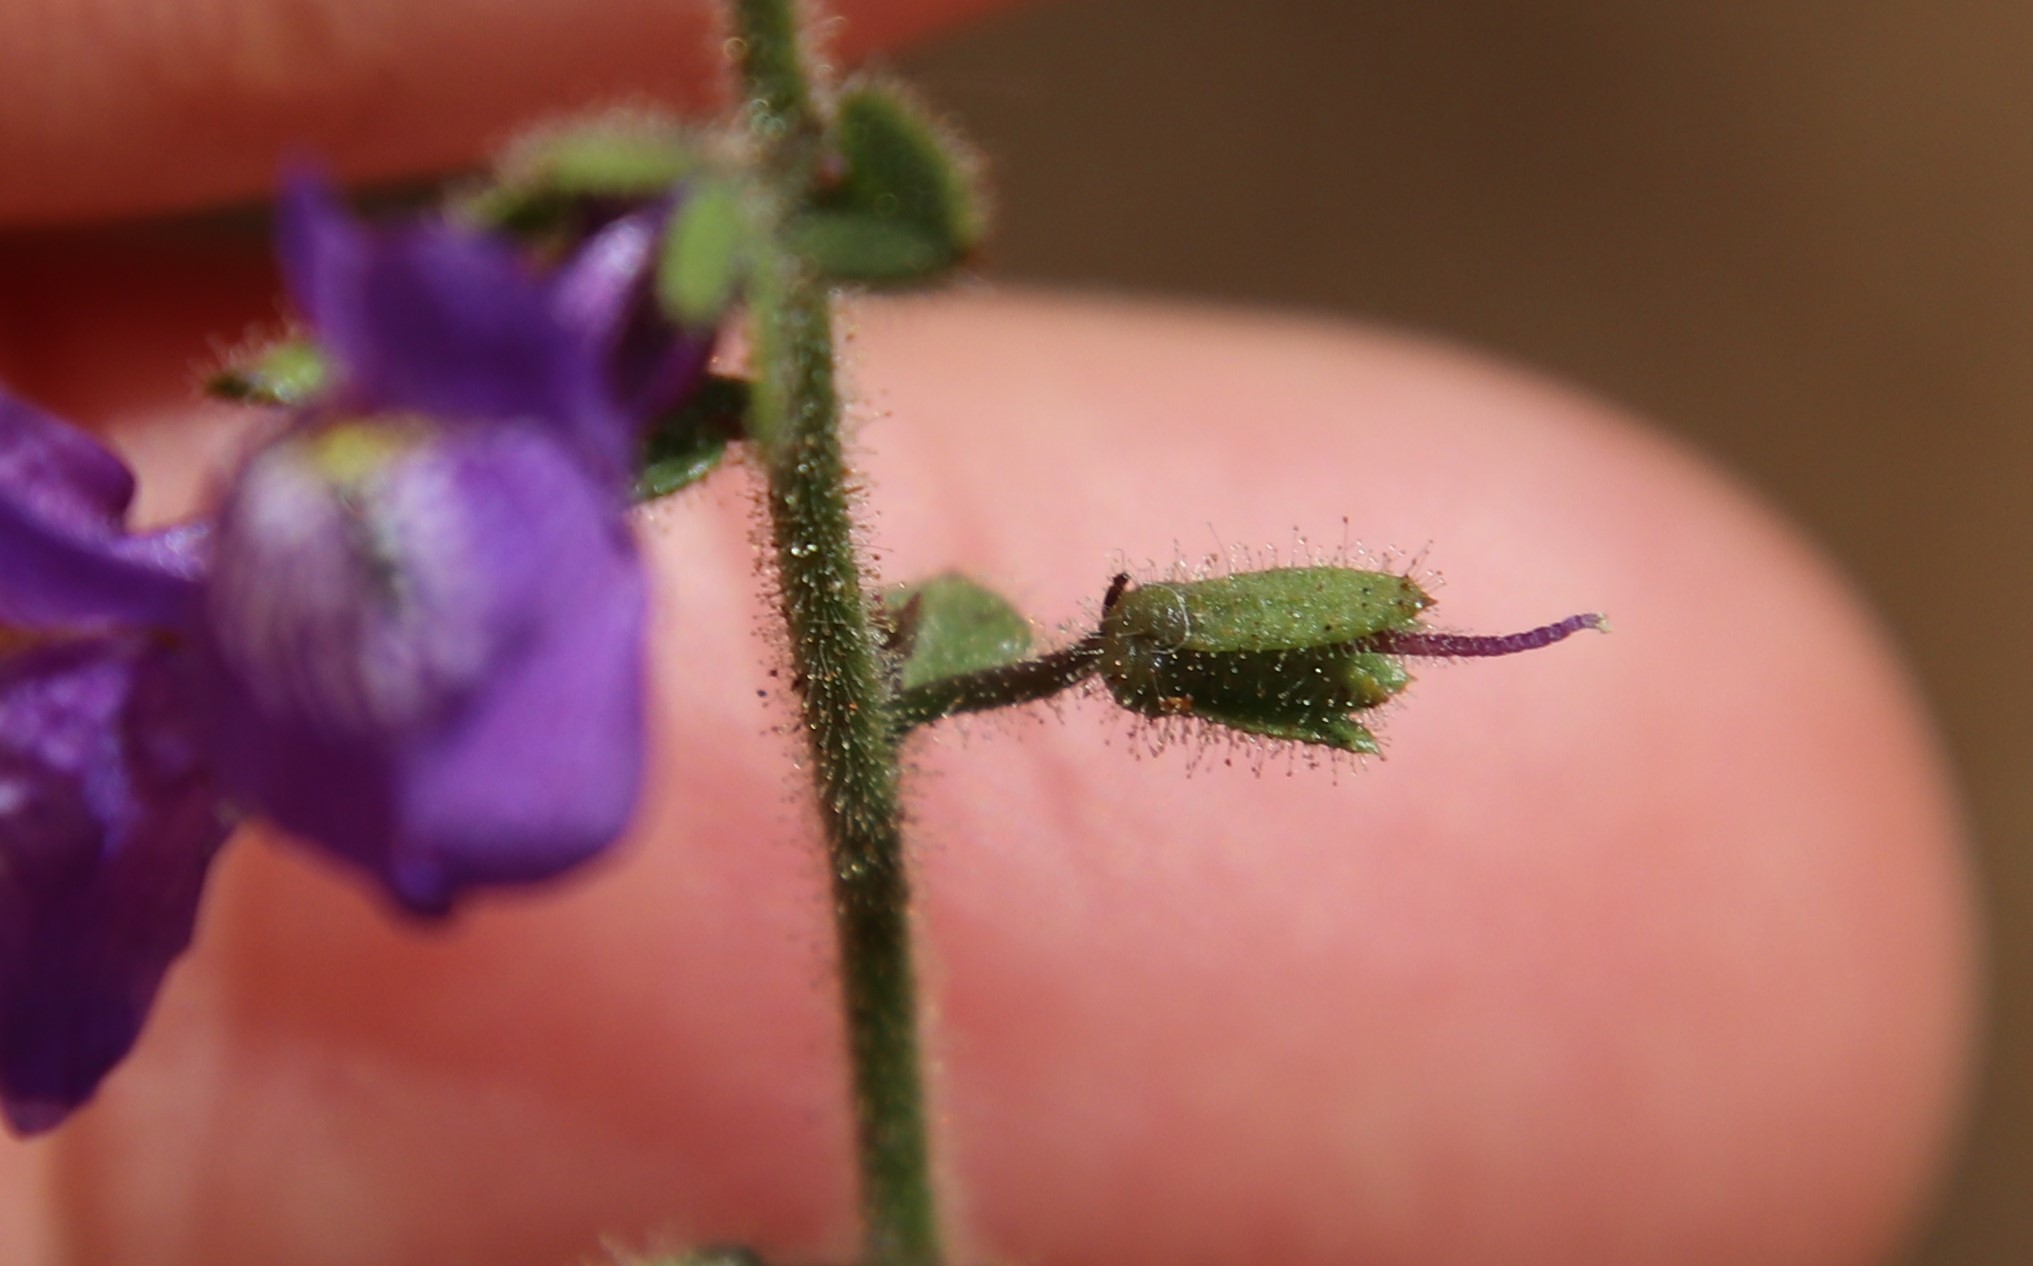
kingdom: Plantae
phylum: Tracheophyta
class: Magnoliopsida
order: Lamiales
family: Plantaginaceae
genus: Sairocarpus
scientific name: Sairocarpus nuttallianus
